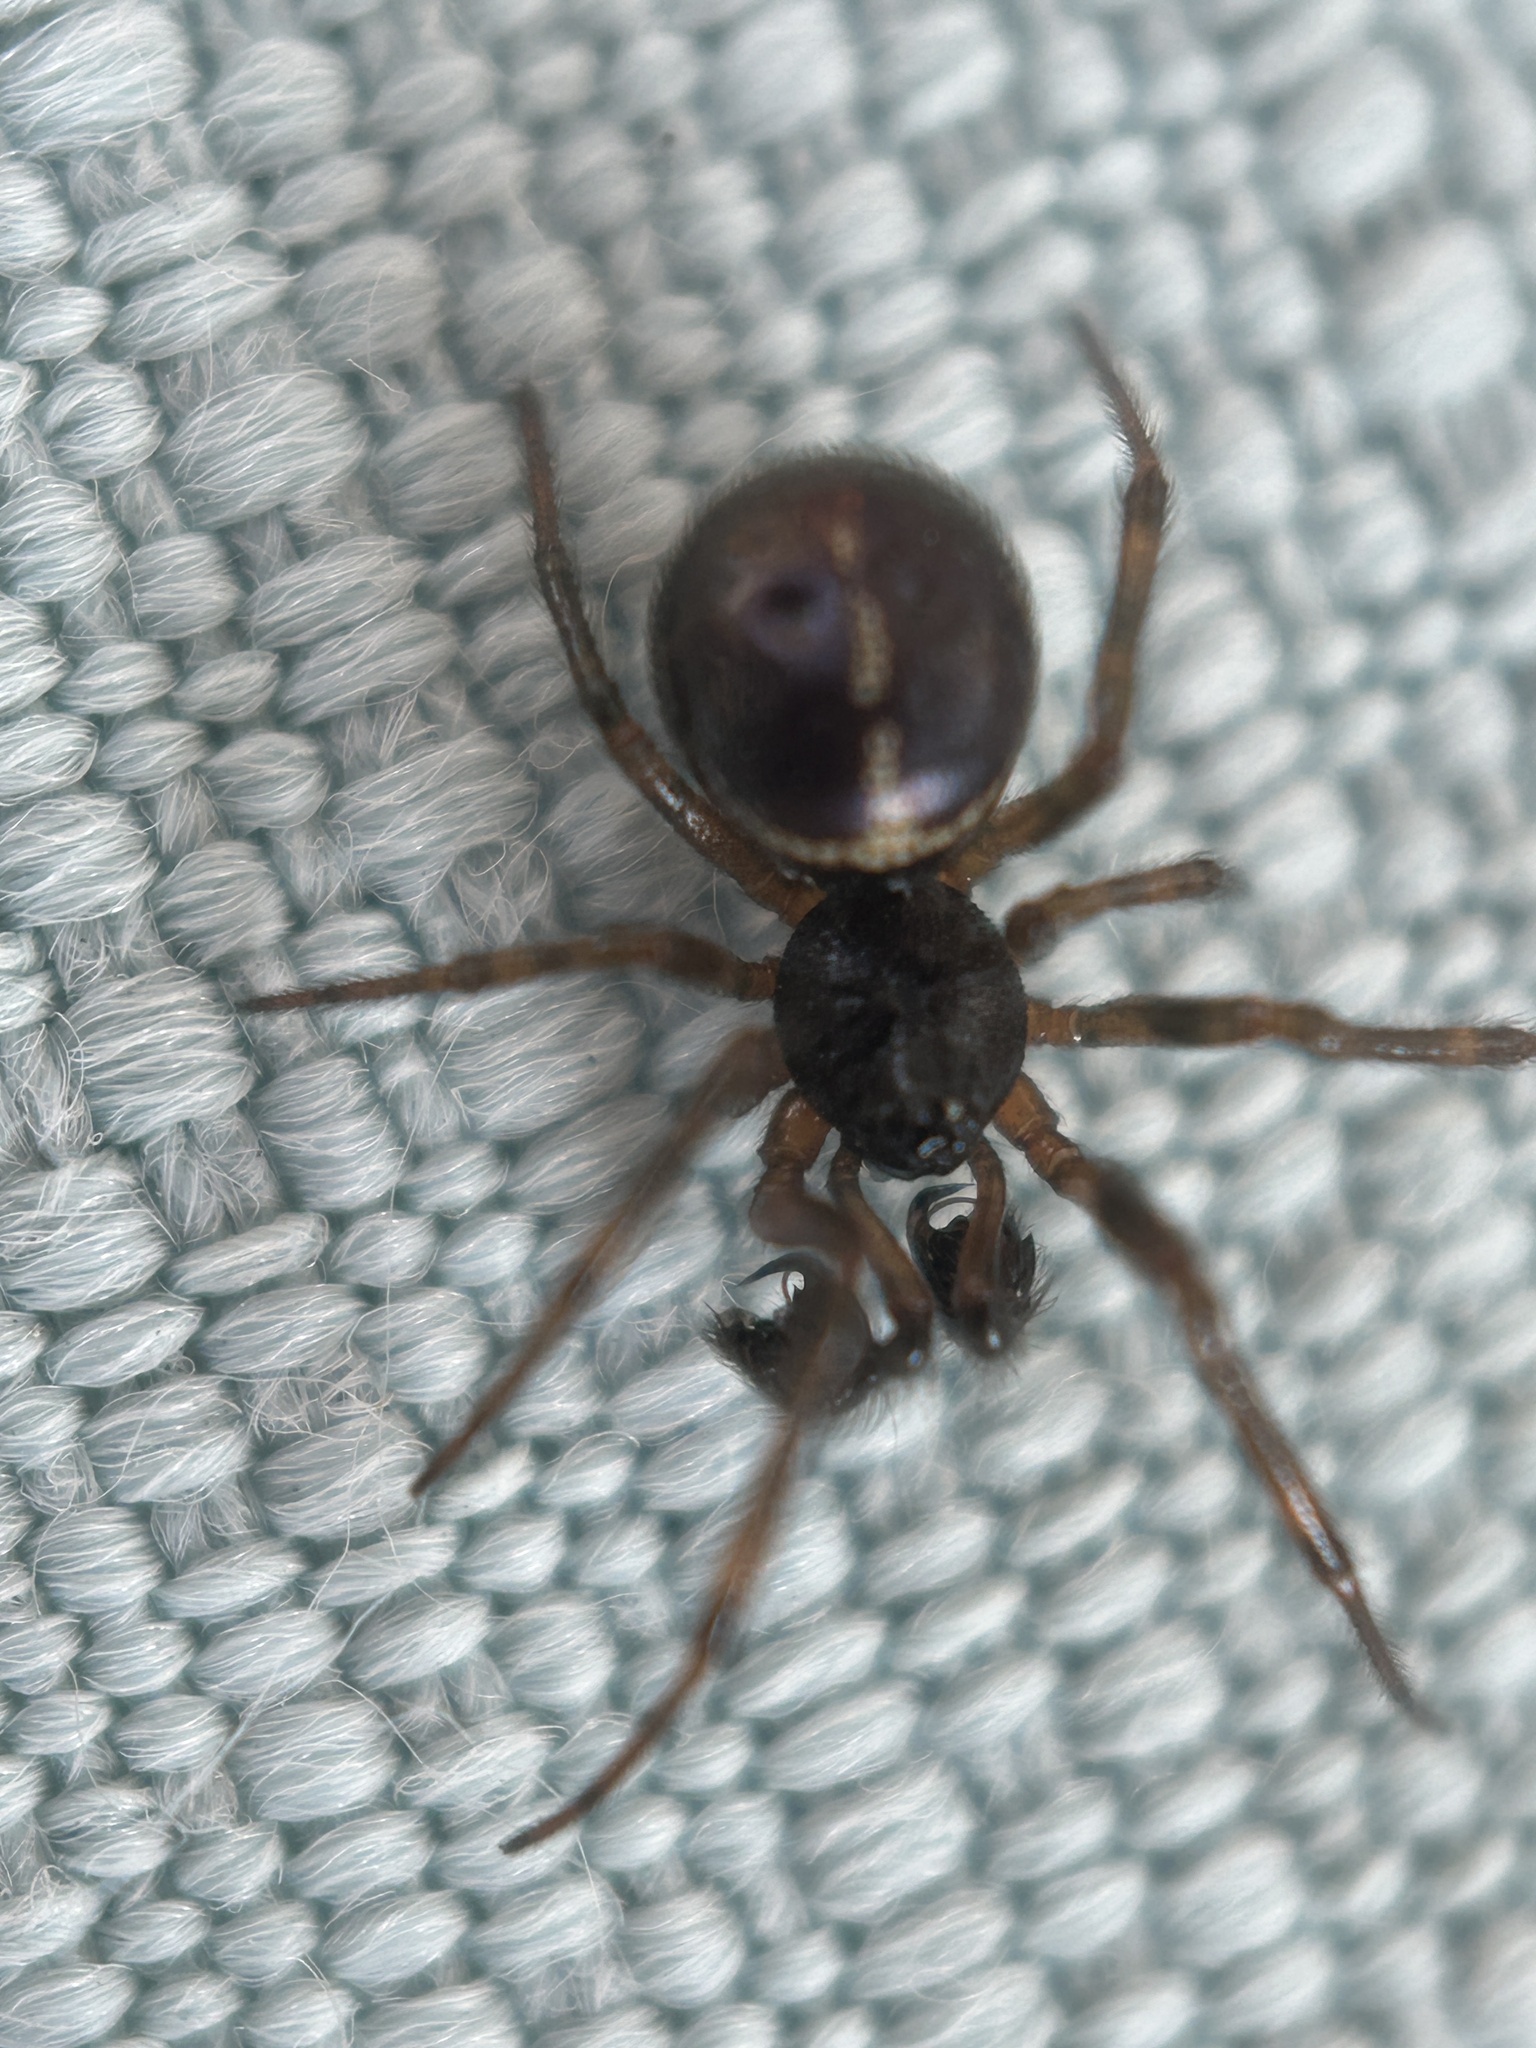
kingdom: Animalia
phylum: Arthropoda
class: Arachnida
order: Araneae
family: Theridiidae
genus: Steatoda
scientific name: Steatoda borealis
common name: Boreal combfoot
